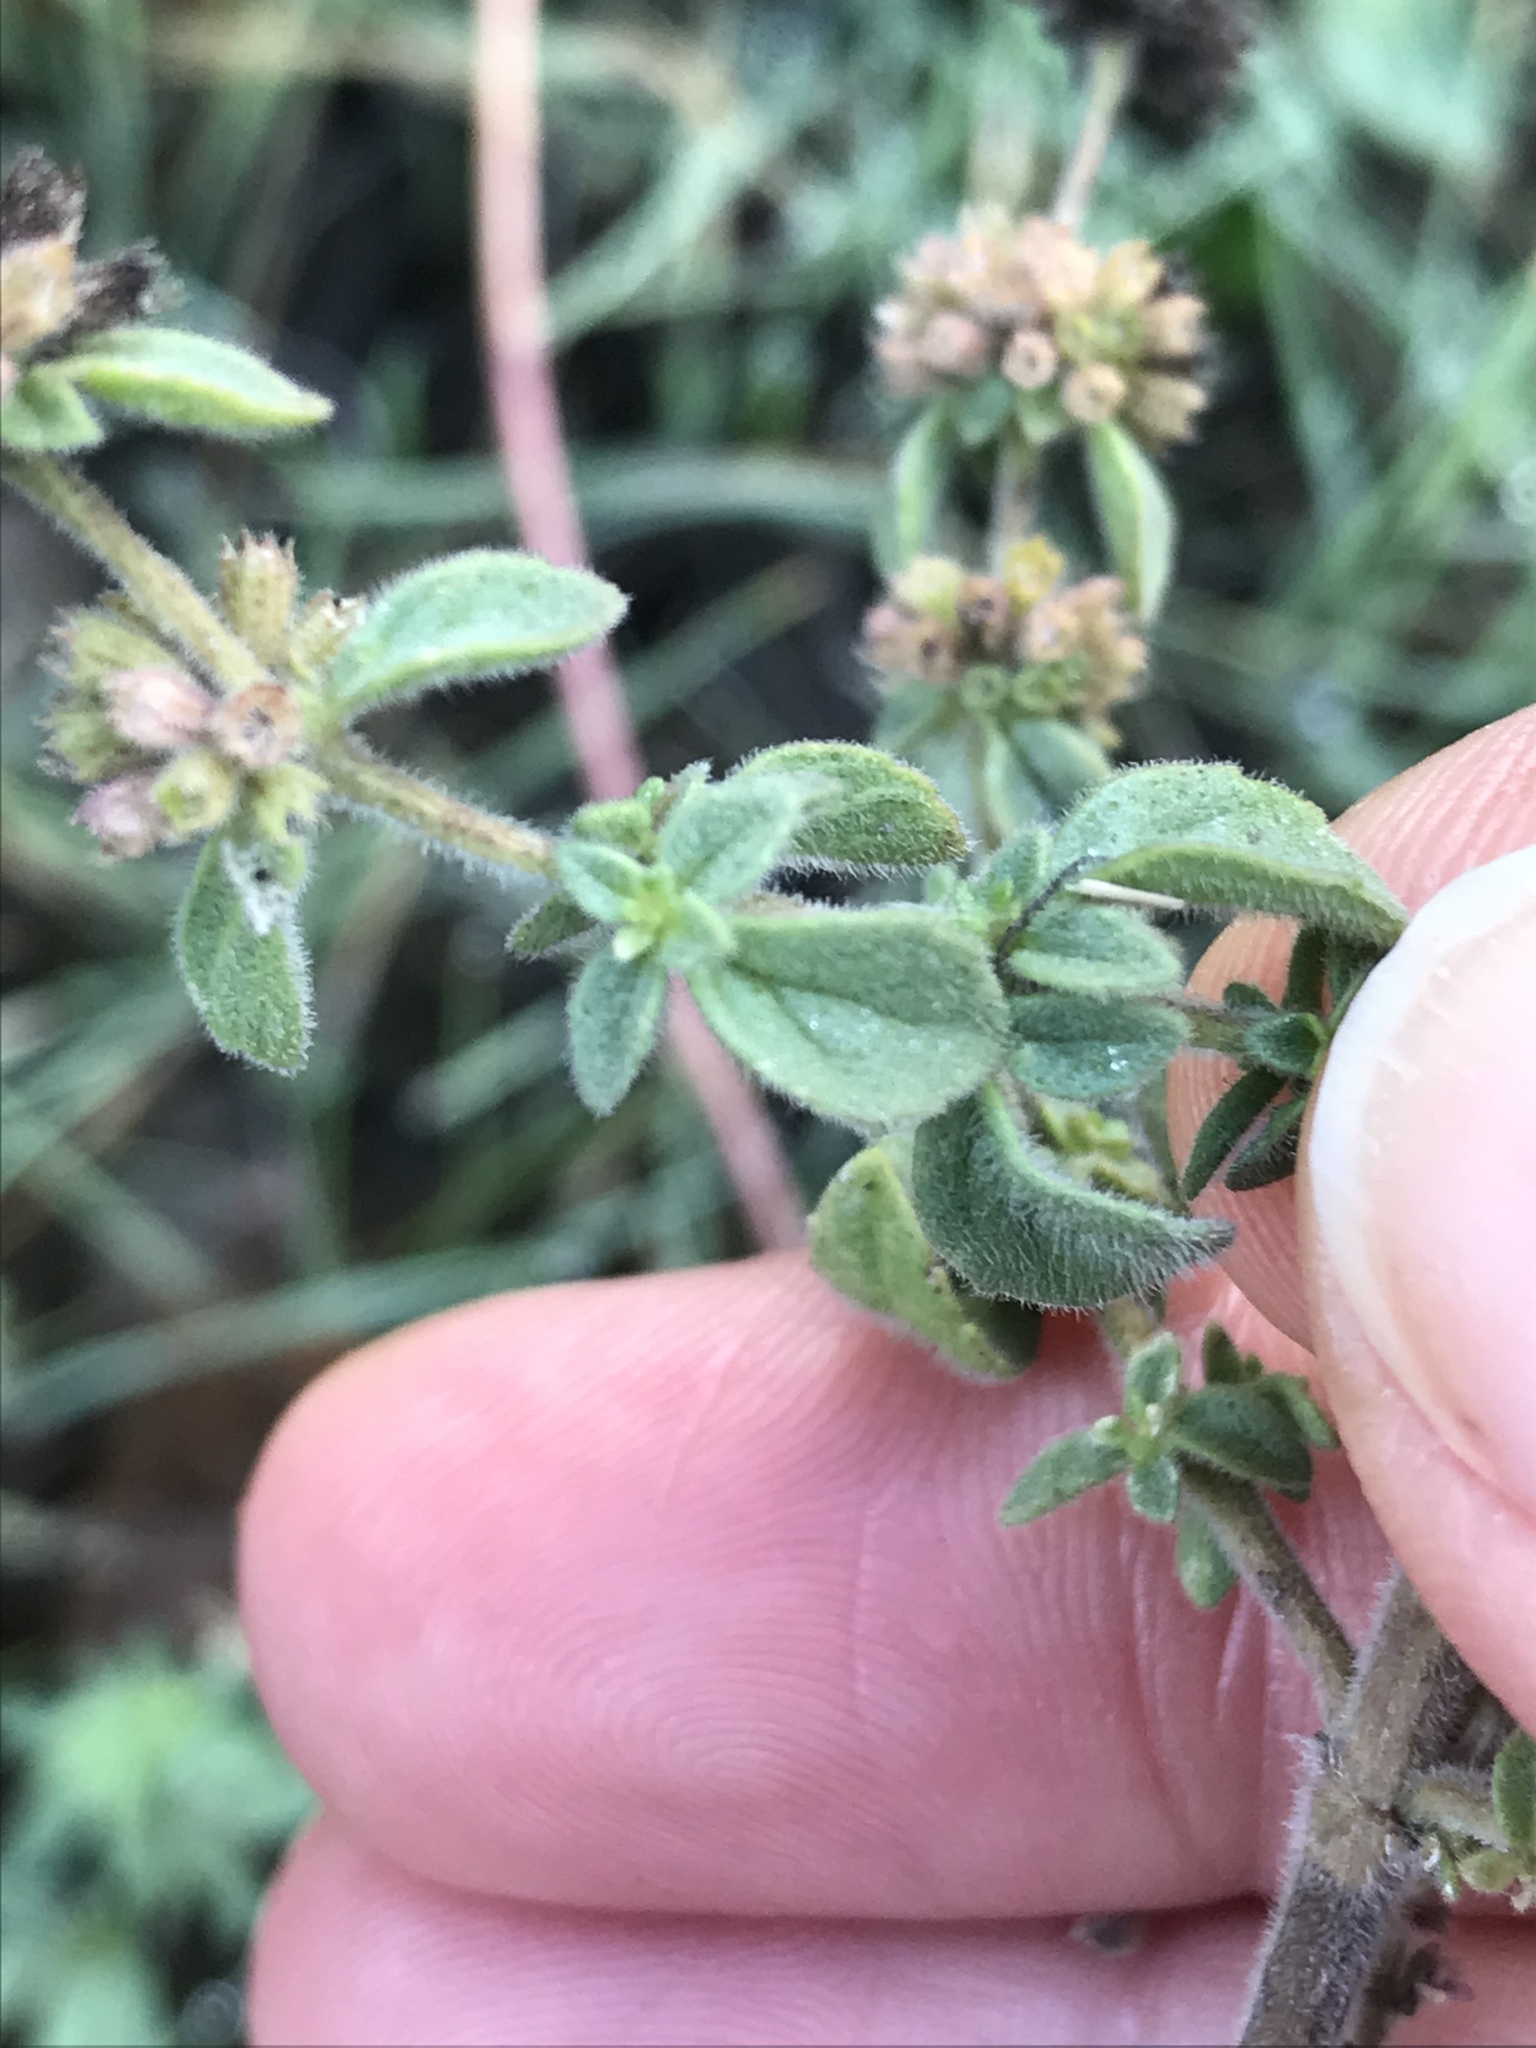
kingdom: Plantae
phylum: Tracheophyta
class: Magnoliopsida
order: Lamiales
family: Lamiaceae
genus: Mentha
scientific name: Mentha pulegium
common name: Pennyroyal
